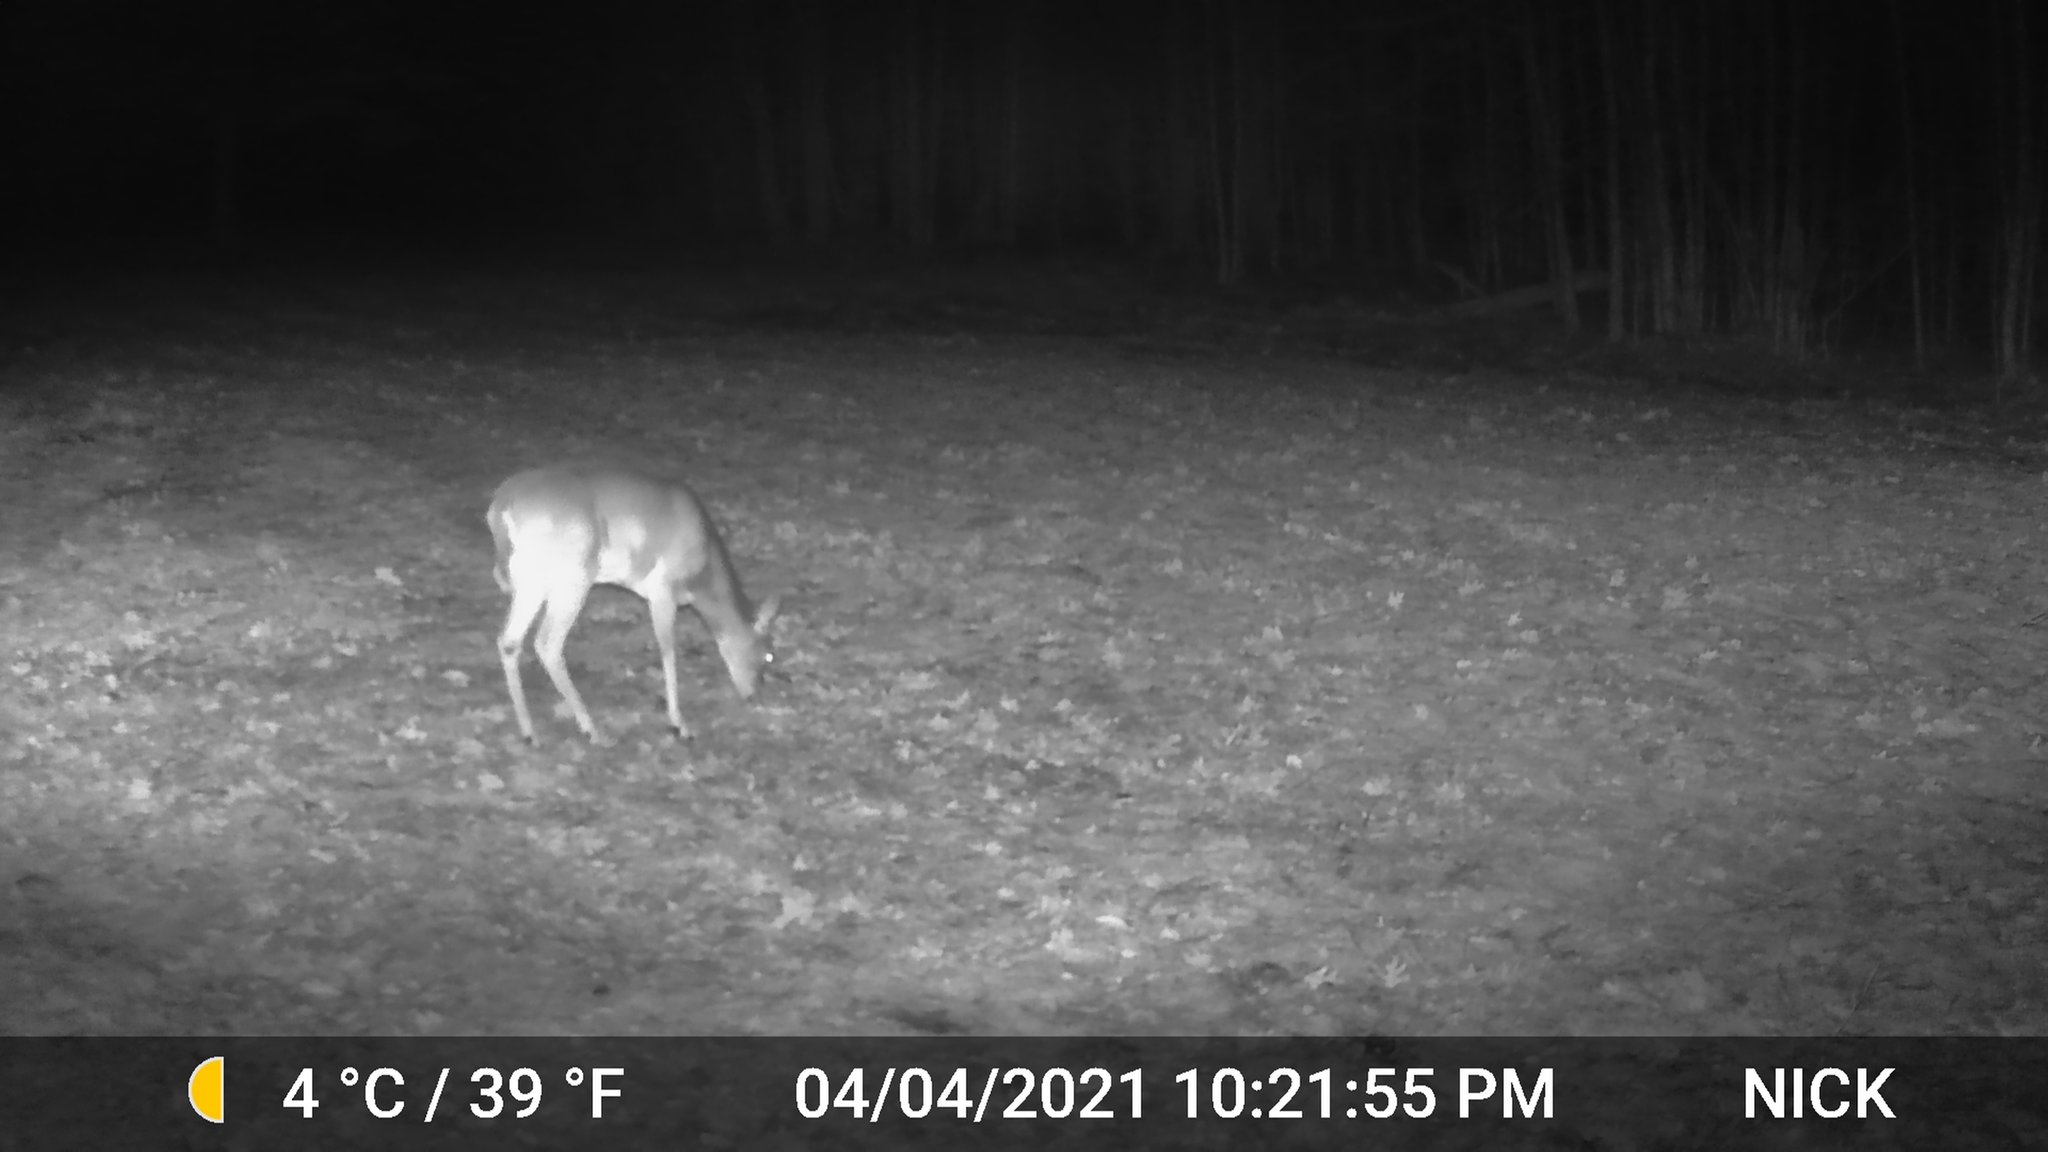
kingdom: Animalia
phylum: Chordata
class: Mammalia
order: Artiodactyla
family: Cervidae
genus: Odocoileus
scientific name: Odocoileus virginianus
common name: White-tailed deer
